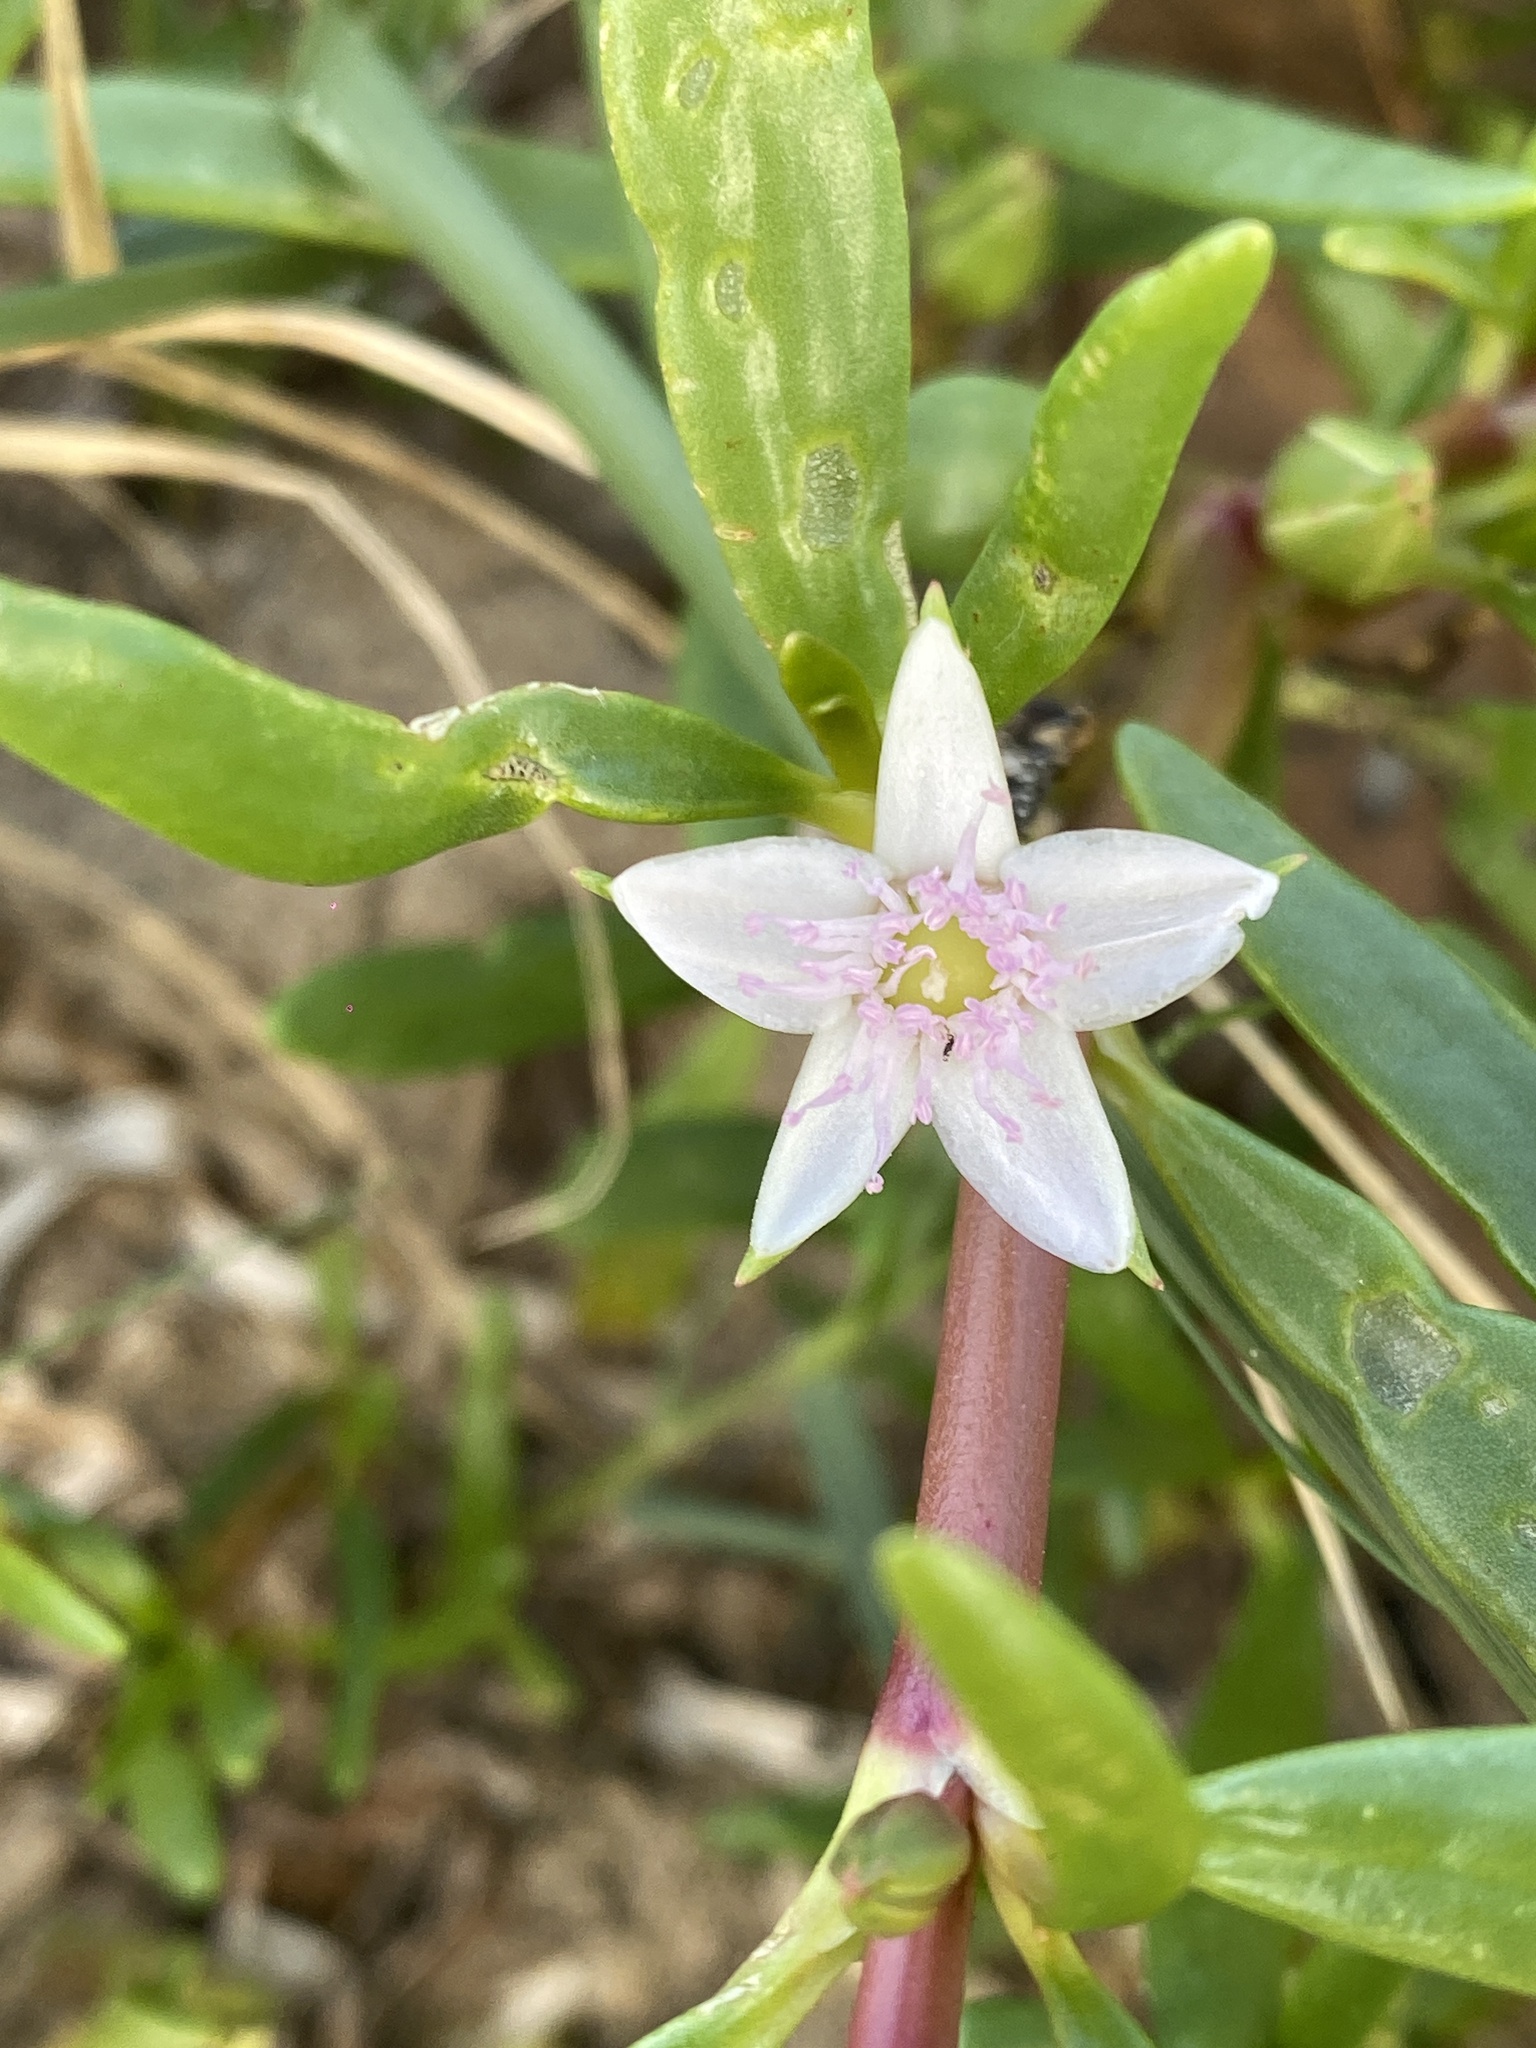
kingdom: Plantae
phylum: Tracheophyta
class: Magnoliopsida
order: Caryophyllales
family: Aizoaceae
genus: Sesuvium
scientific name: Sesuvium portulacastrum
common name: Sea-purslane
